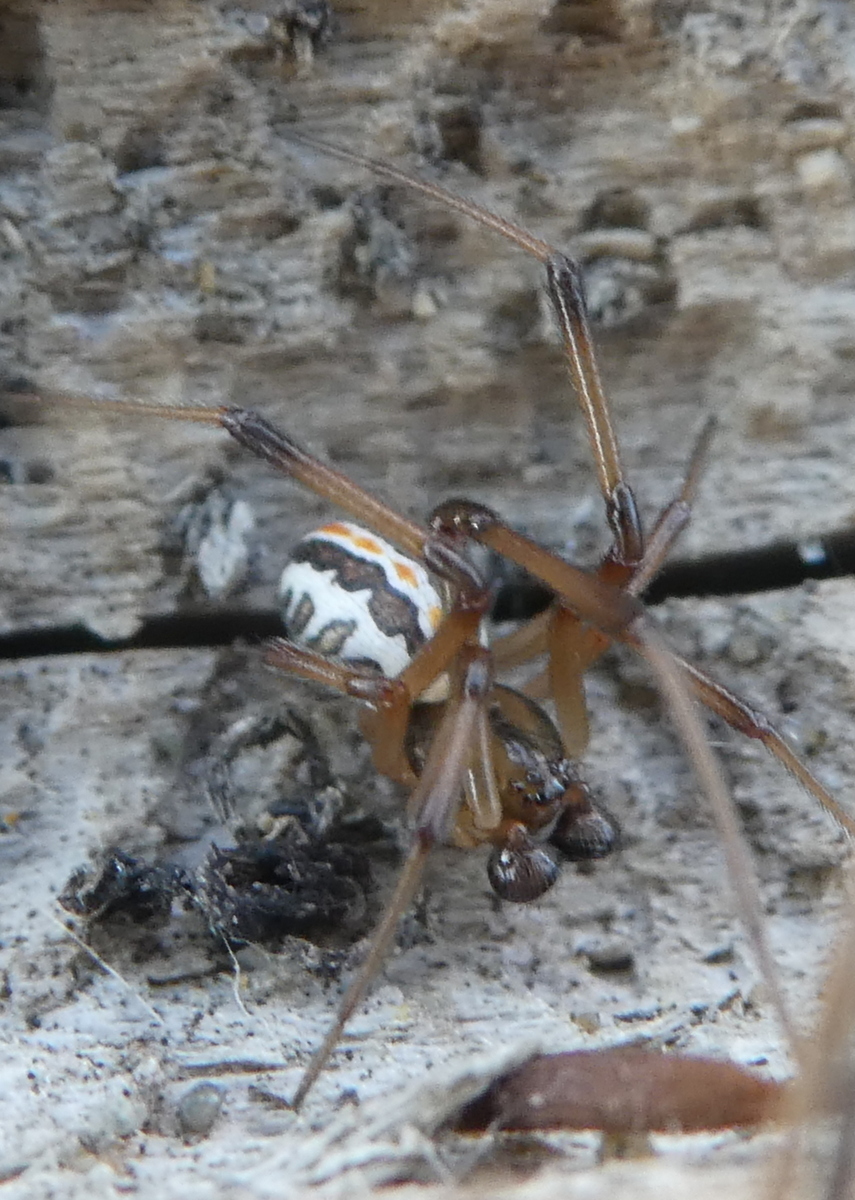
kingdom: Animalia
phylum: Arthropoda
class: Arachnida
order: Araneae
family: Theridiidae
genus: Latrodectus
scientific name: Latrodectus katipo
